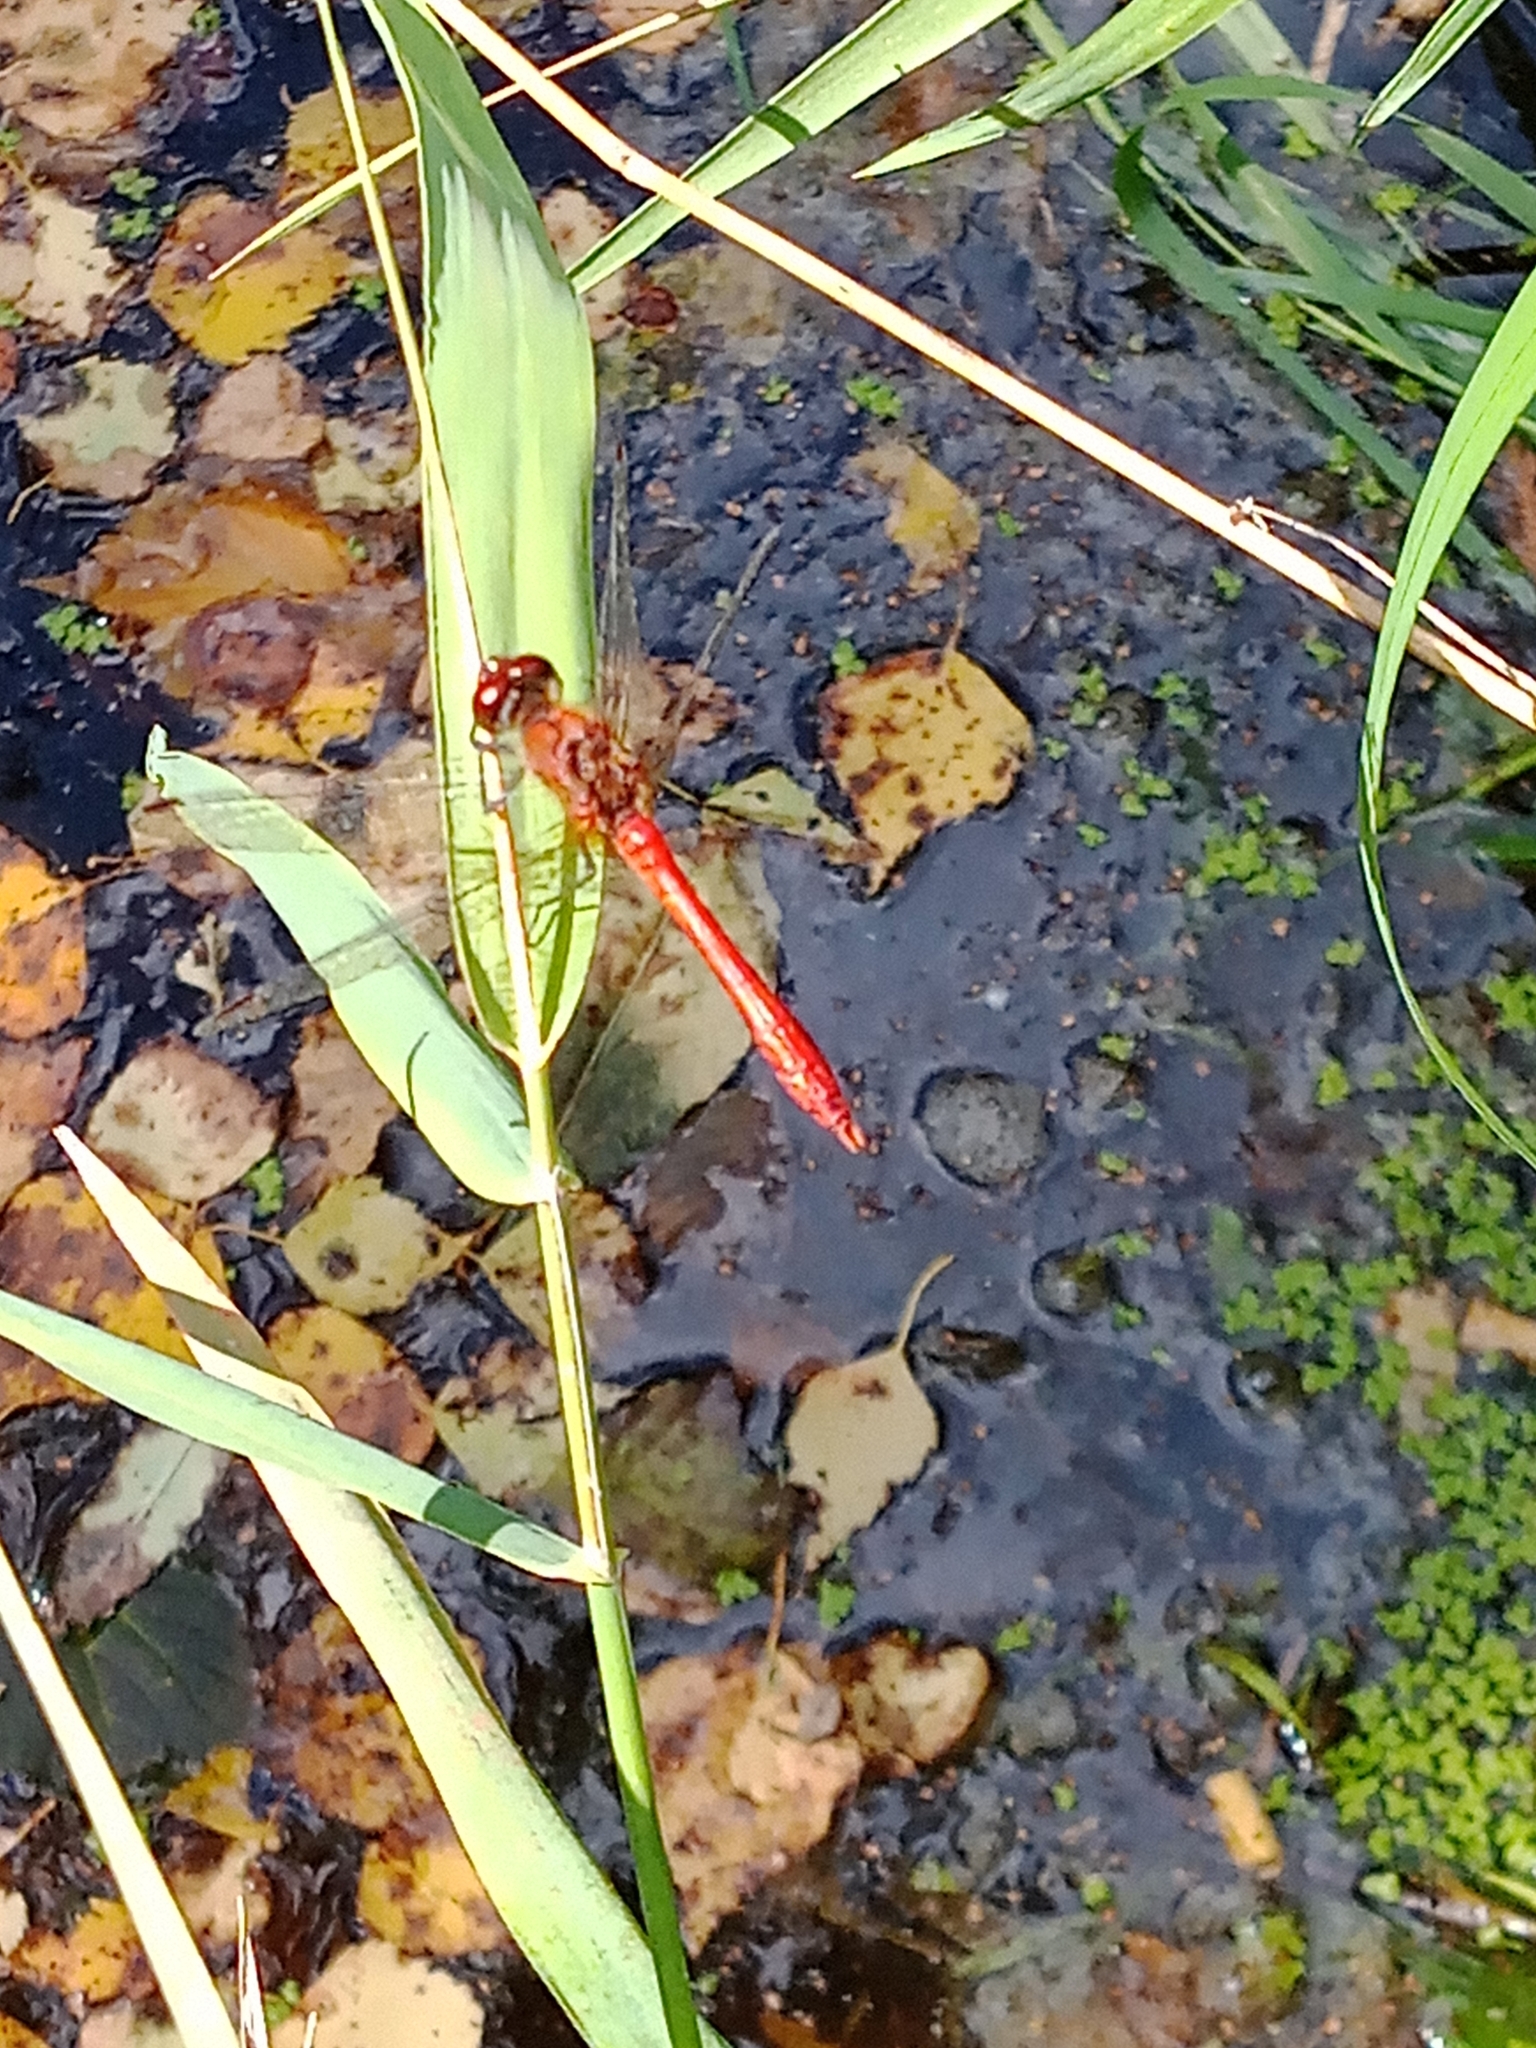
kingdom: Animalia
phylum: Arthropoda
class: Insecta
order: Odonata
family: Libellulidae
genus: Sympetrum
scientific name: Sympetrum sanguineum
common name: Ruddy darter
